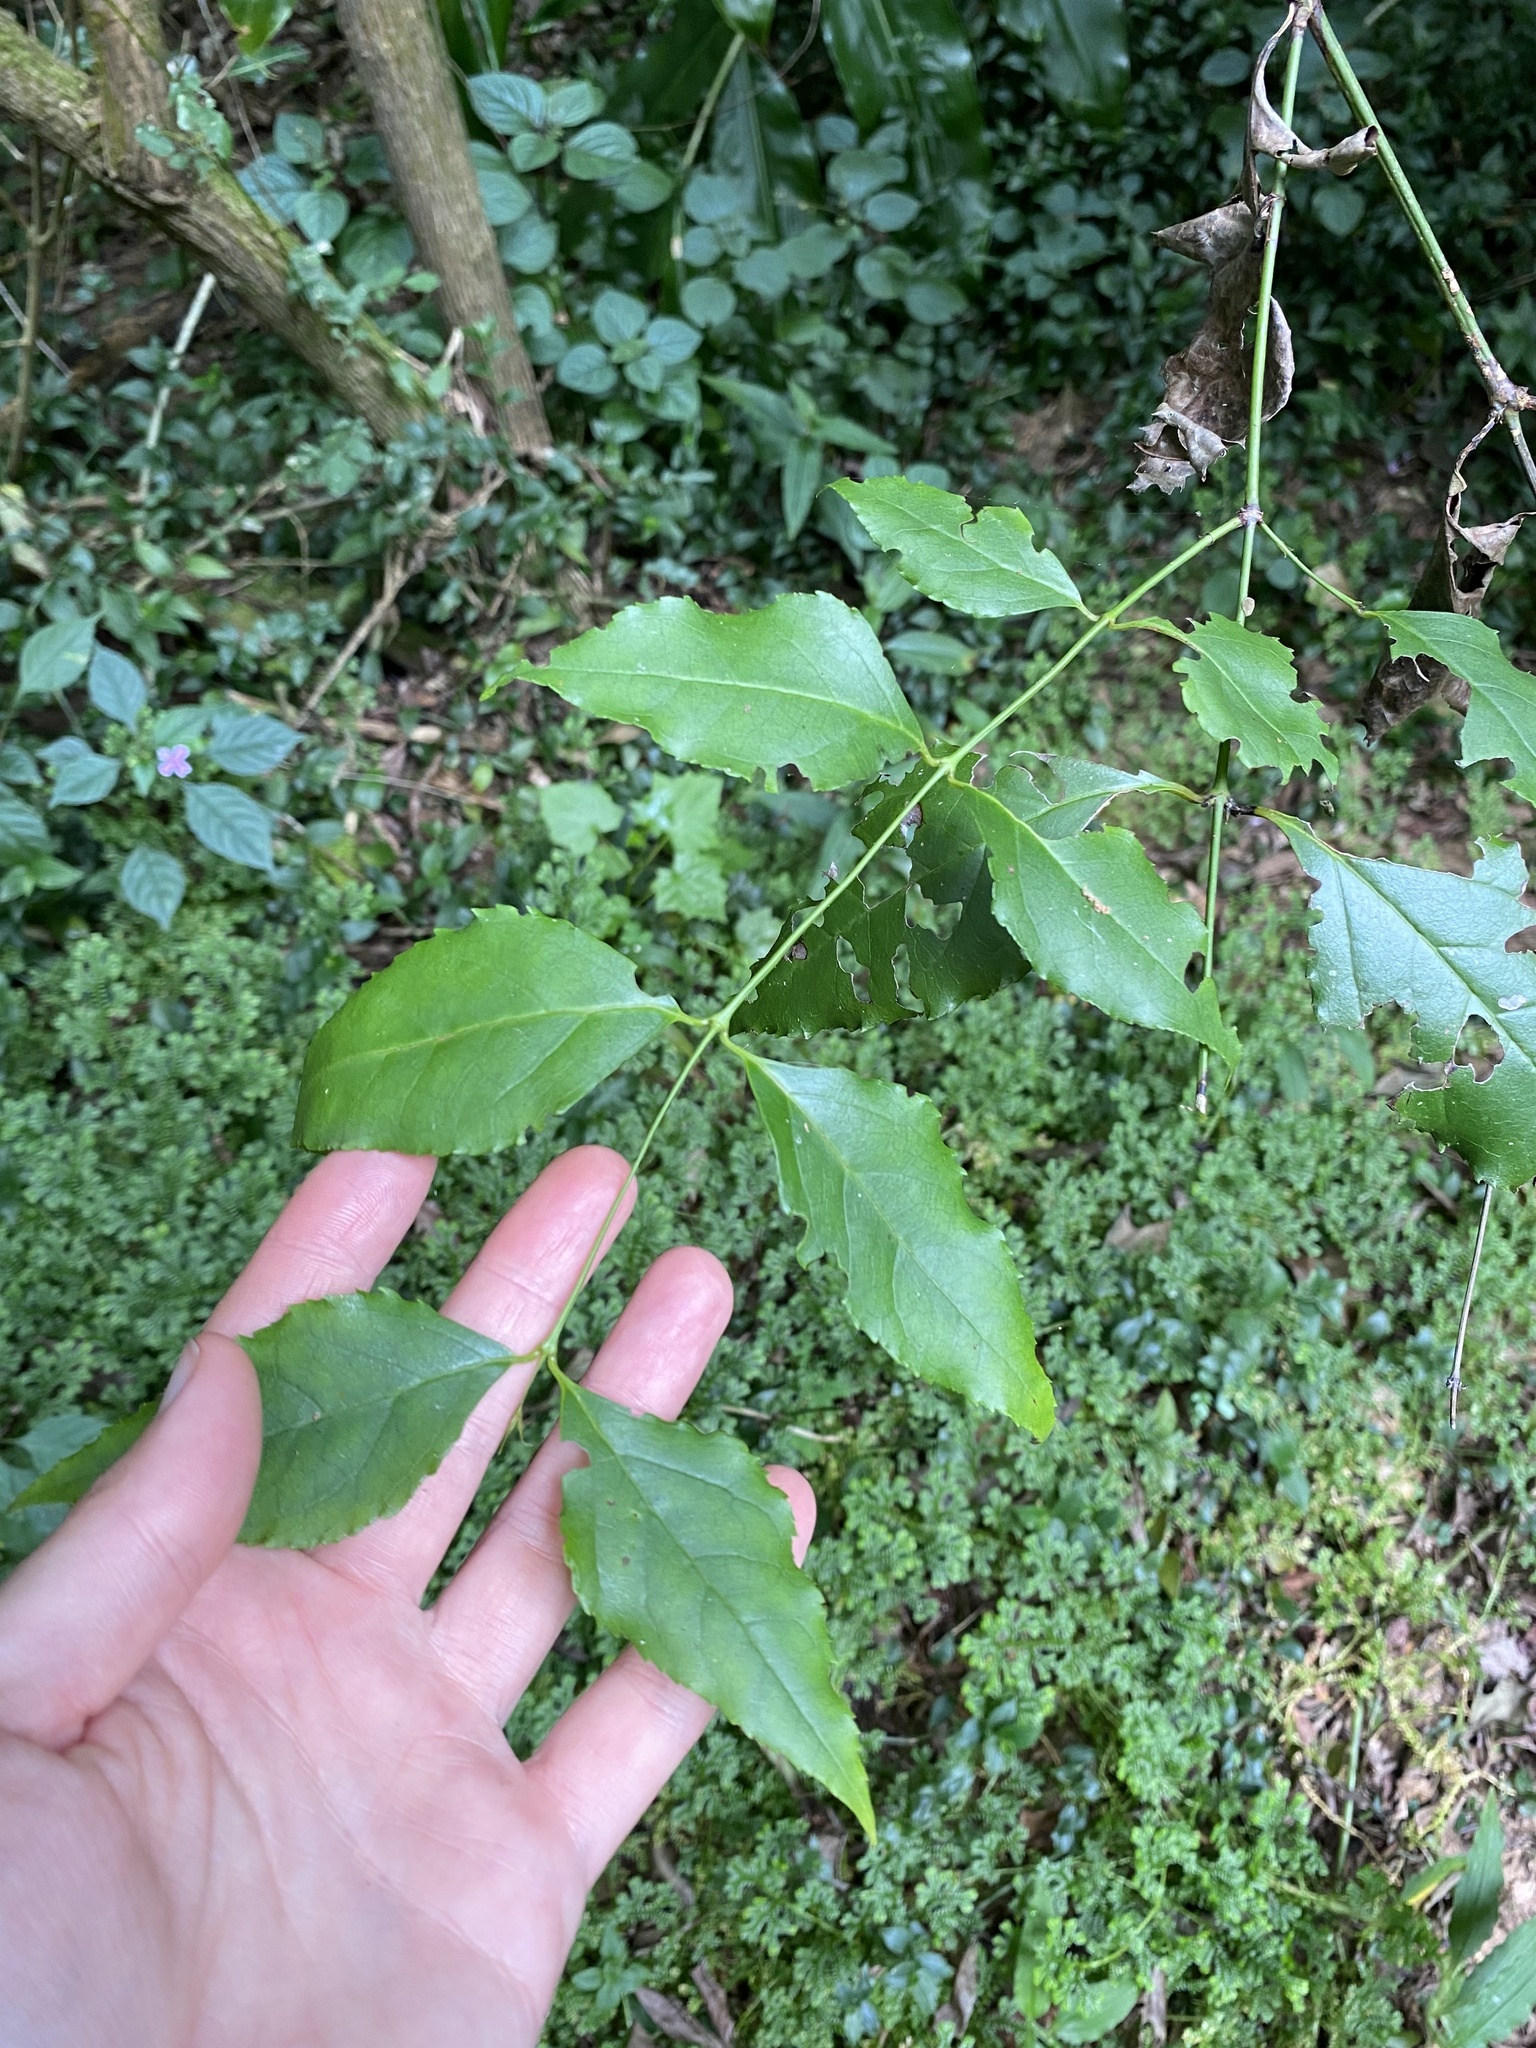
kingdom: Plantae
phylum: Tracheophyta
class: Magnoliopsida
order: Lamiales
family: Stilbaceae
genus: Halleria
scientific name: Halleria lucida
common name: Tree fuschia
